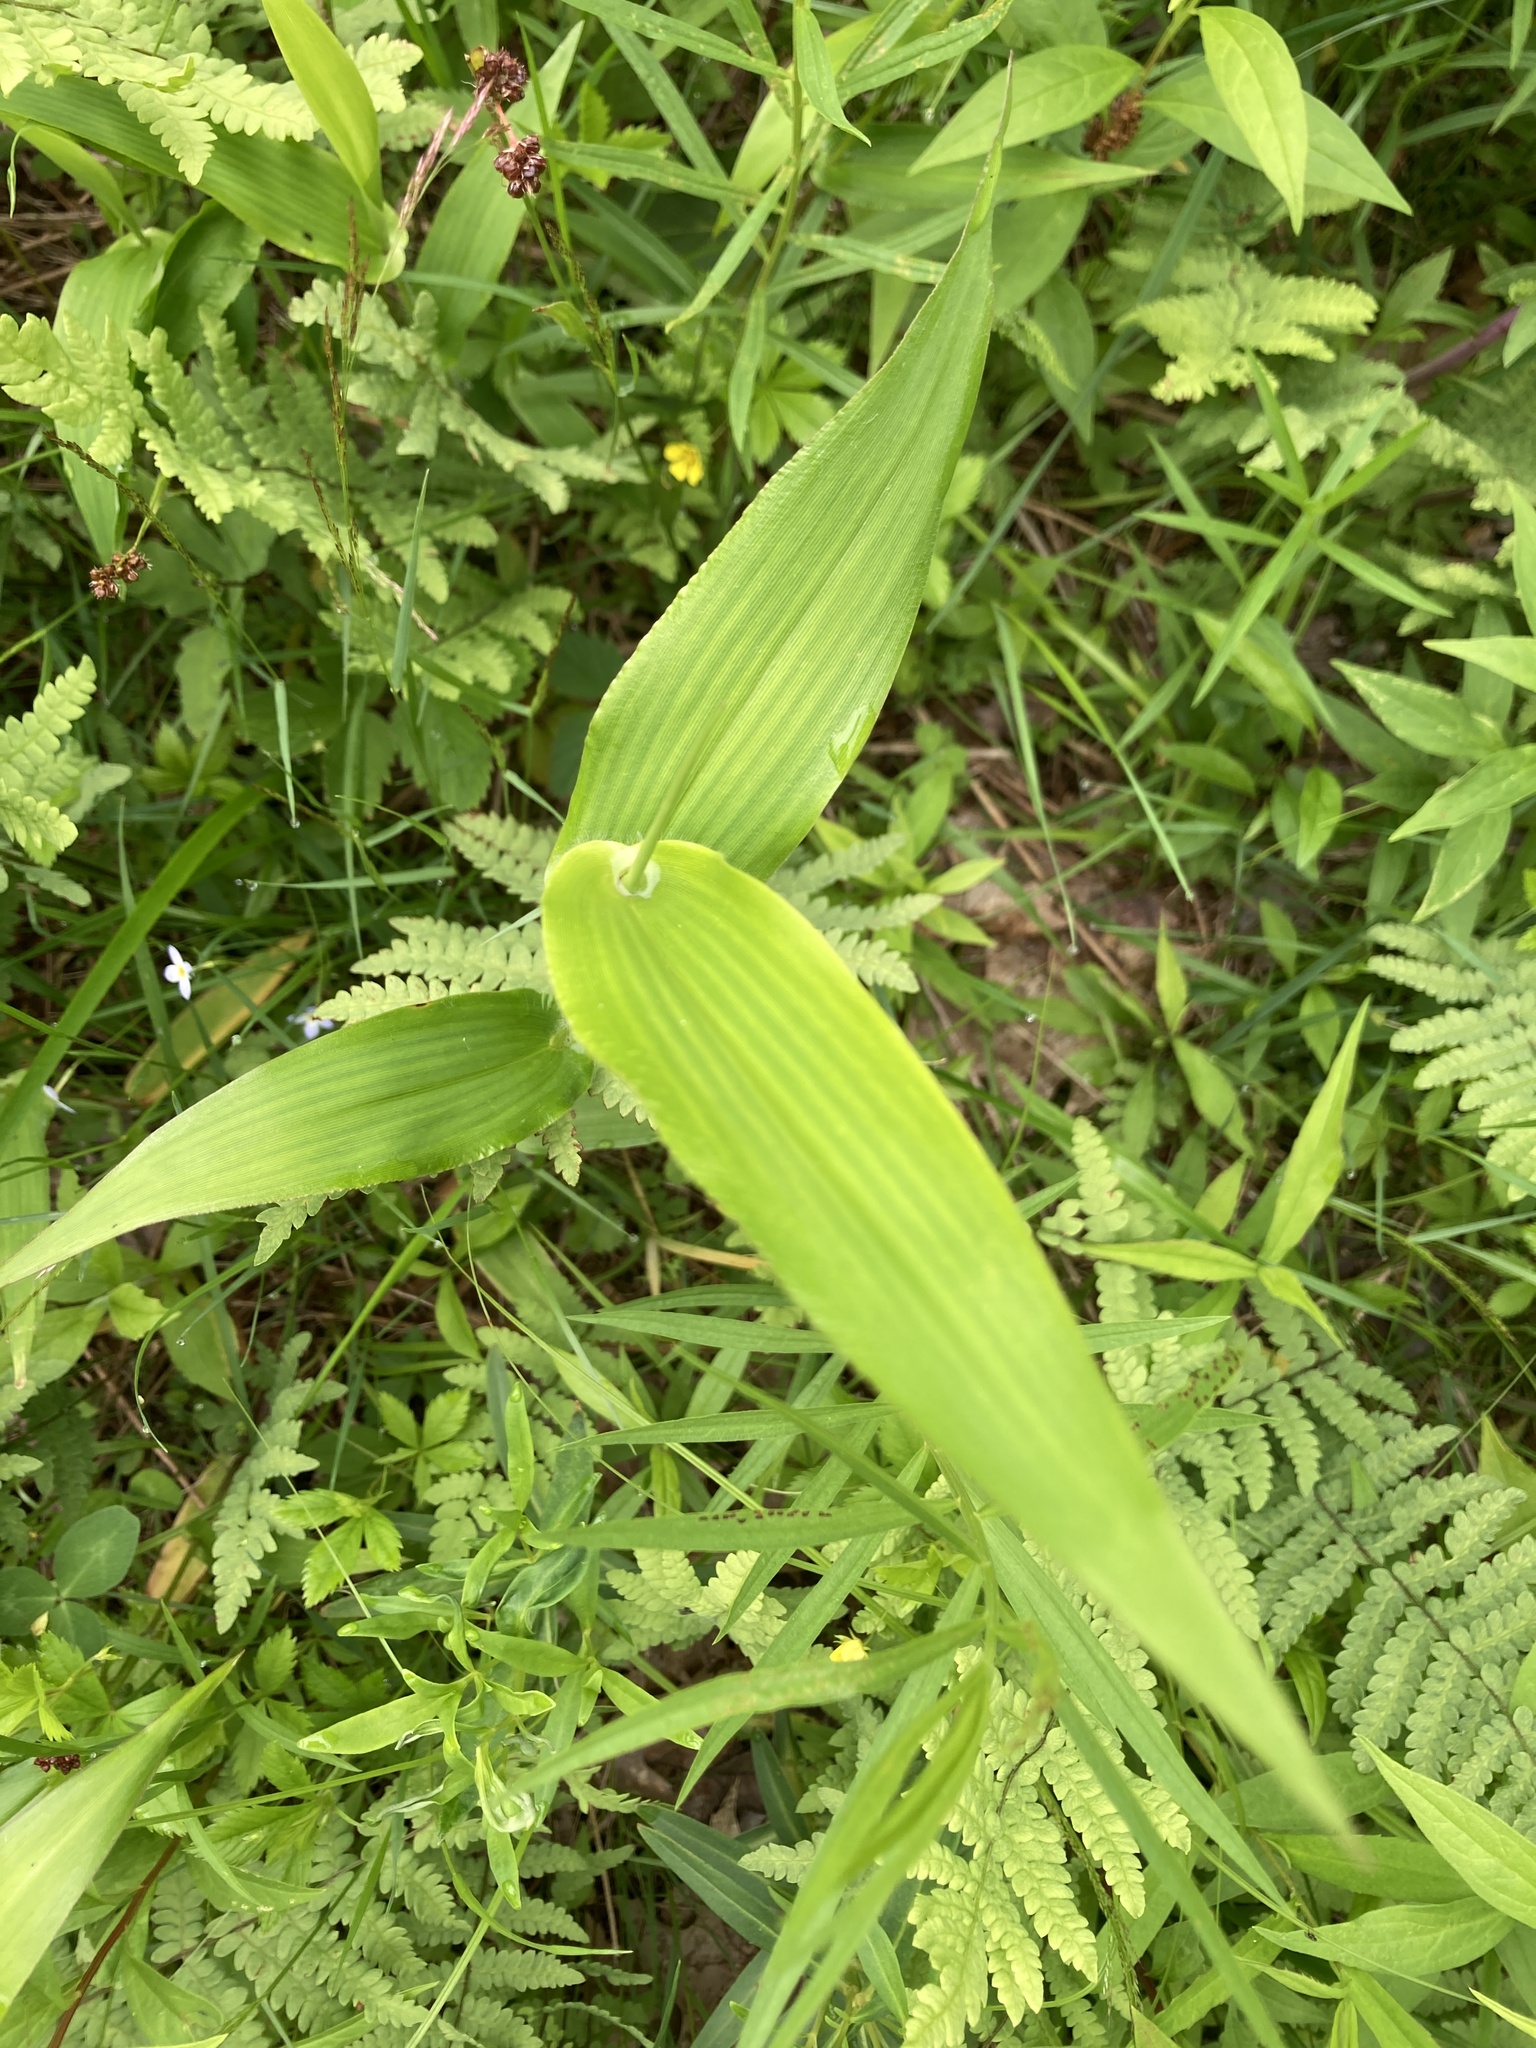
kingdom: Plantae
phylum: Tracheophyta
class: Liliopsida
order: Poales
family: Poaceae
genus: Dichanthelium
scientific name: Dichanthelium clandestinum
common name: Deer-tongue grass
